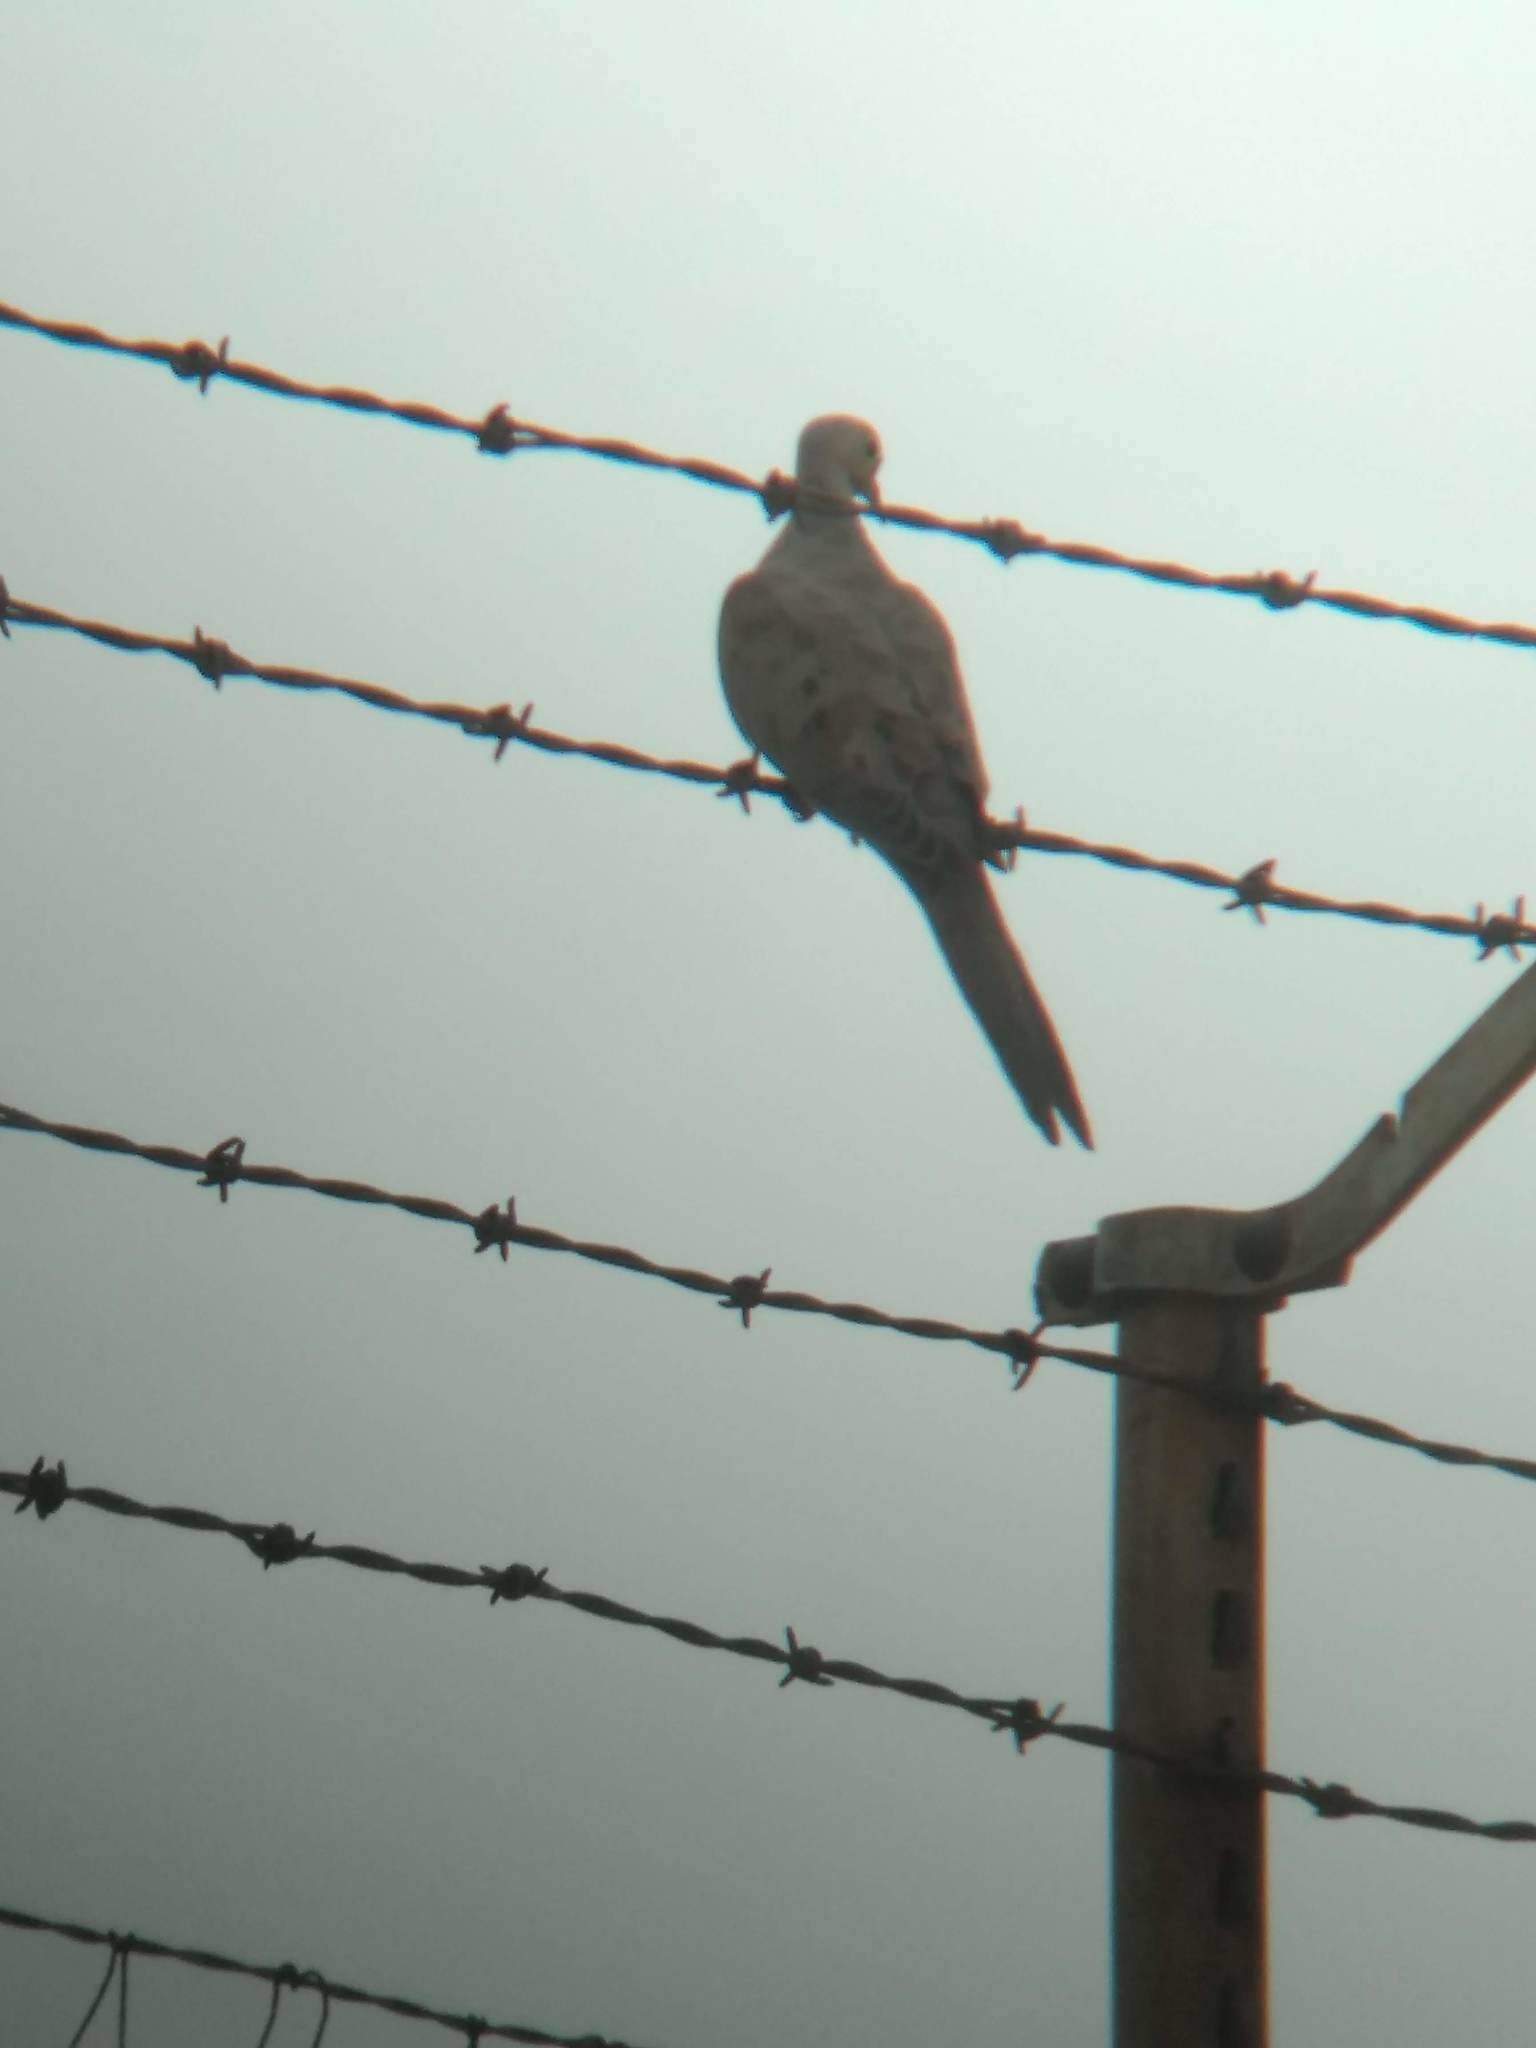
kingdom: Animalia
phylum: Chordata
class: Aves
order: Columbiformes
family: Columbidae
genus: Zenaida
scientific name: Zenaida macroura
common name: Mourning dove
